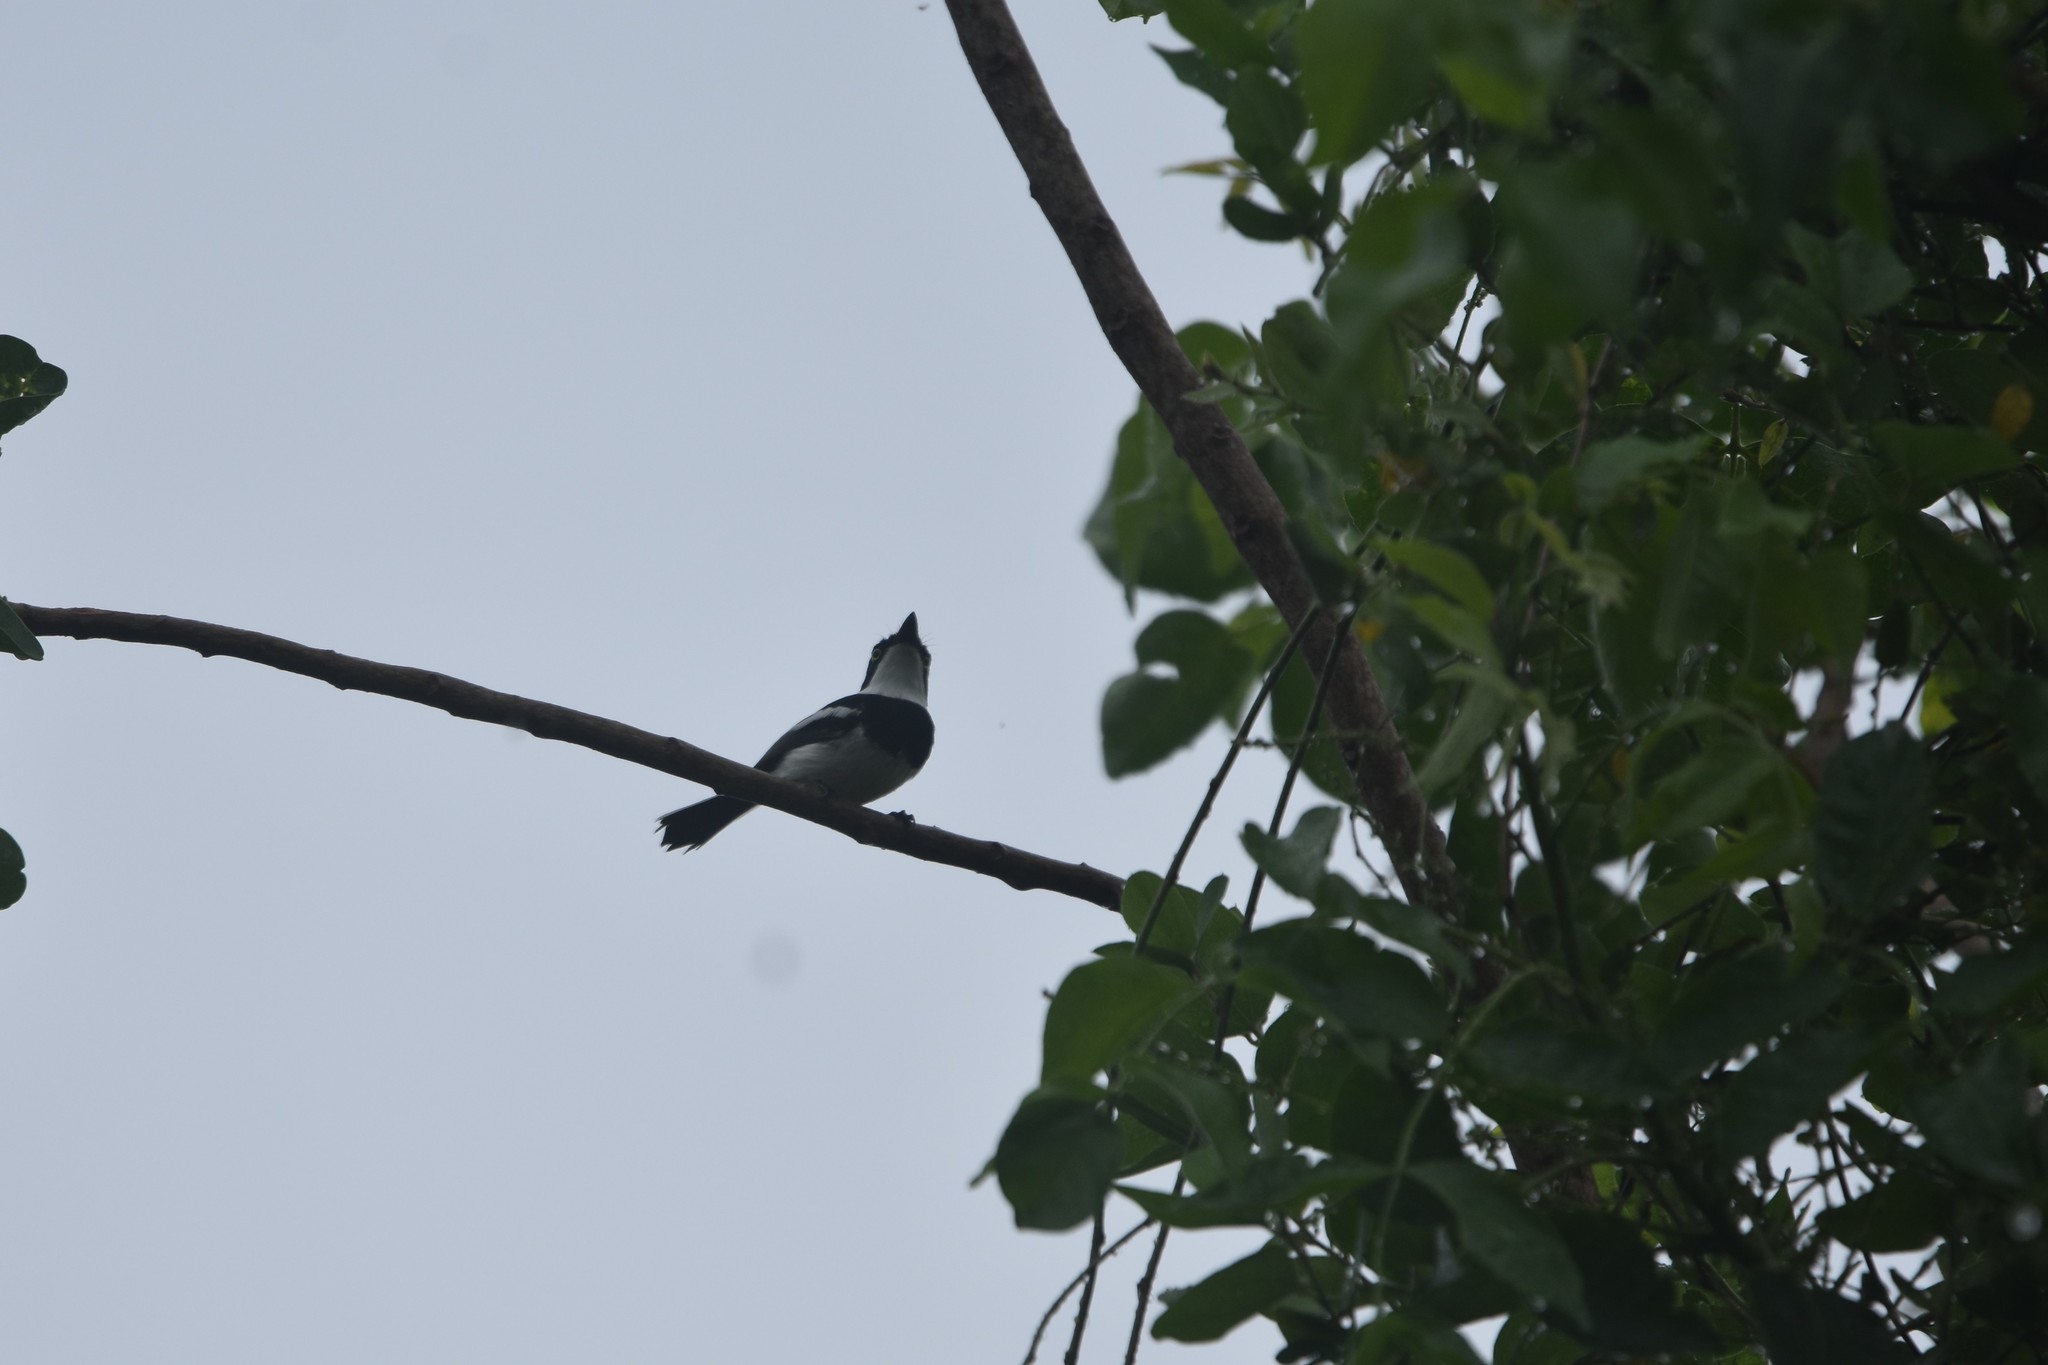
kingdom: Animalia
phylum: Chordata
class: Aves
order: Passeriformes
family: Platysteiridae
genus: Batis
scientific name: Batis molitor
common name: Chinspot batis
